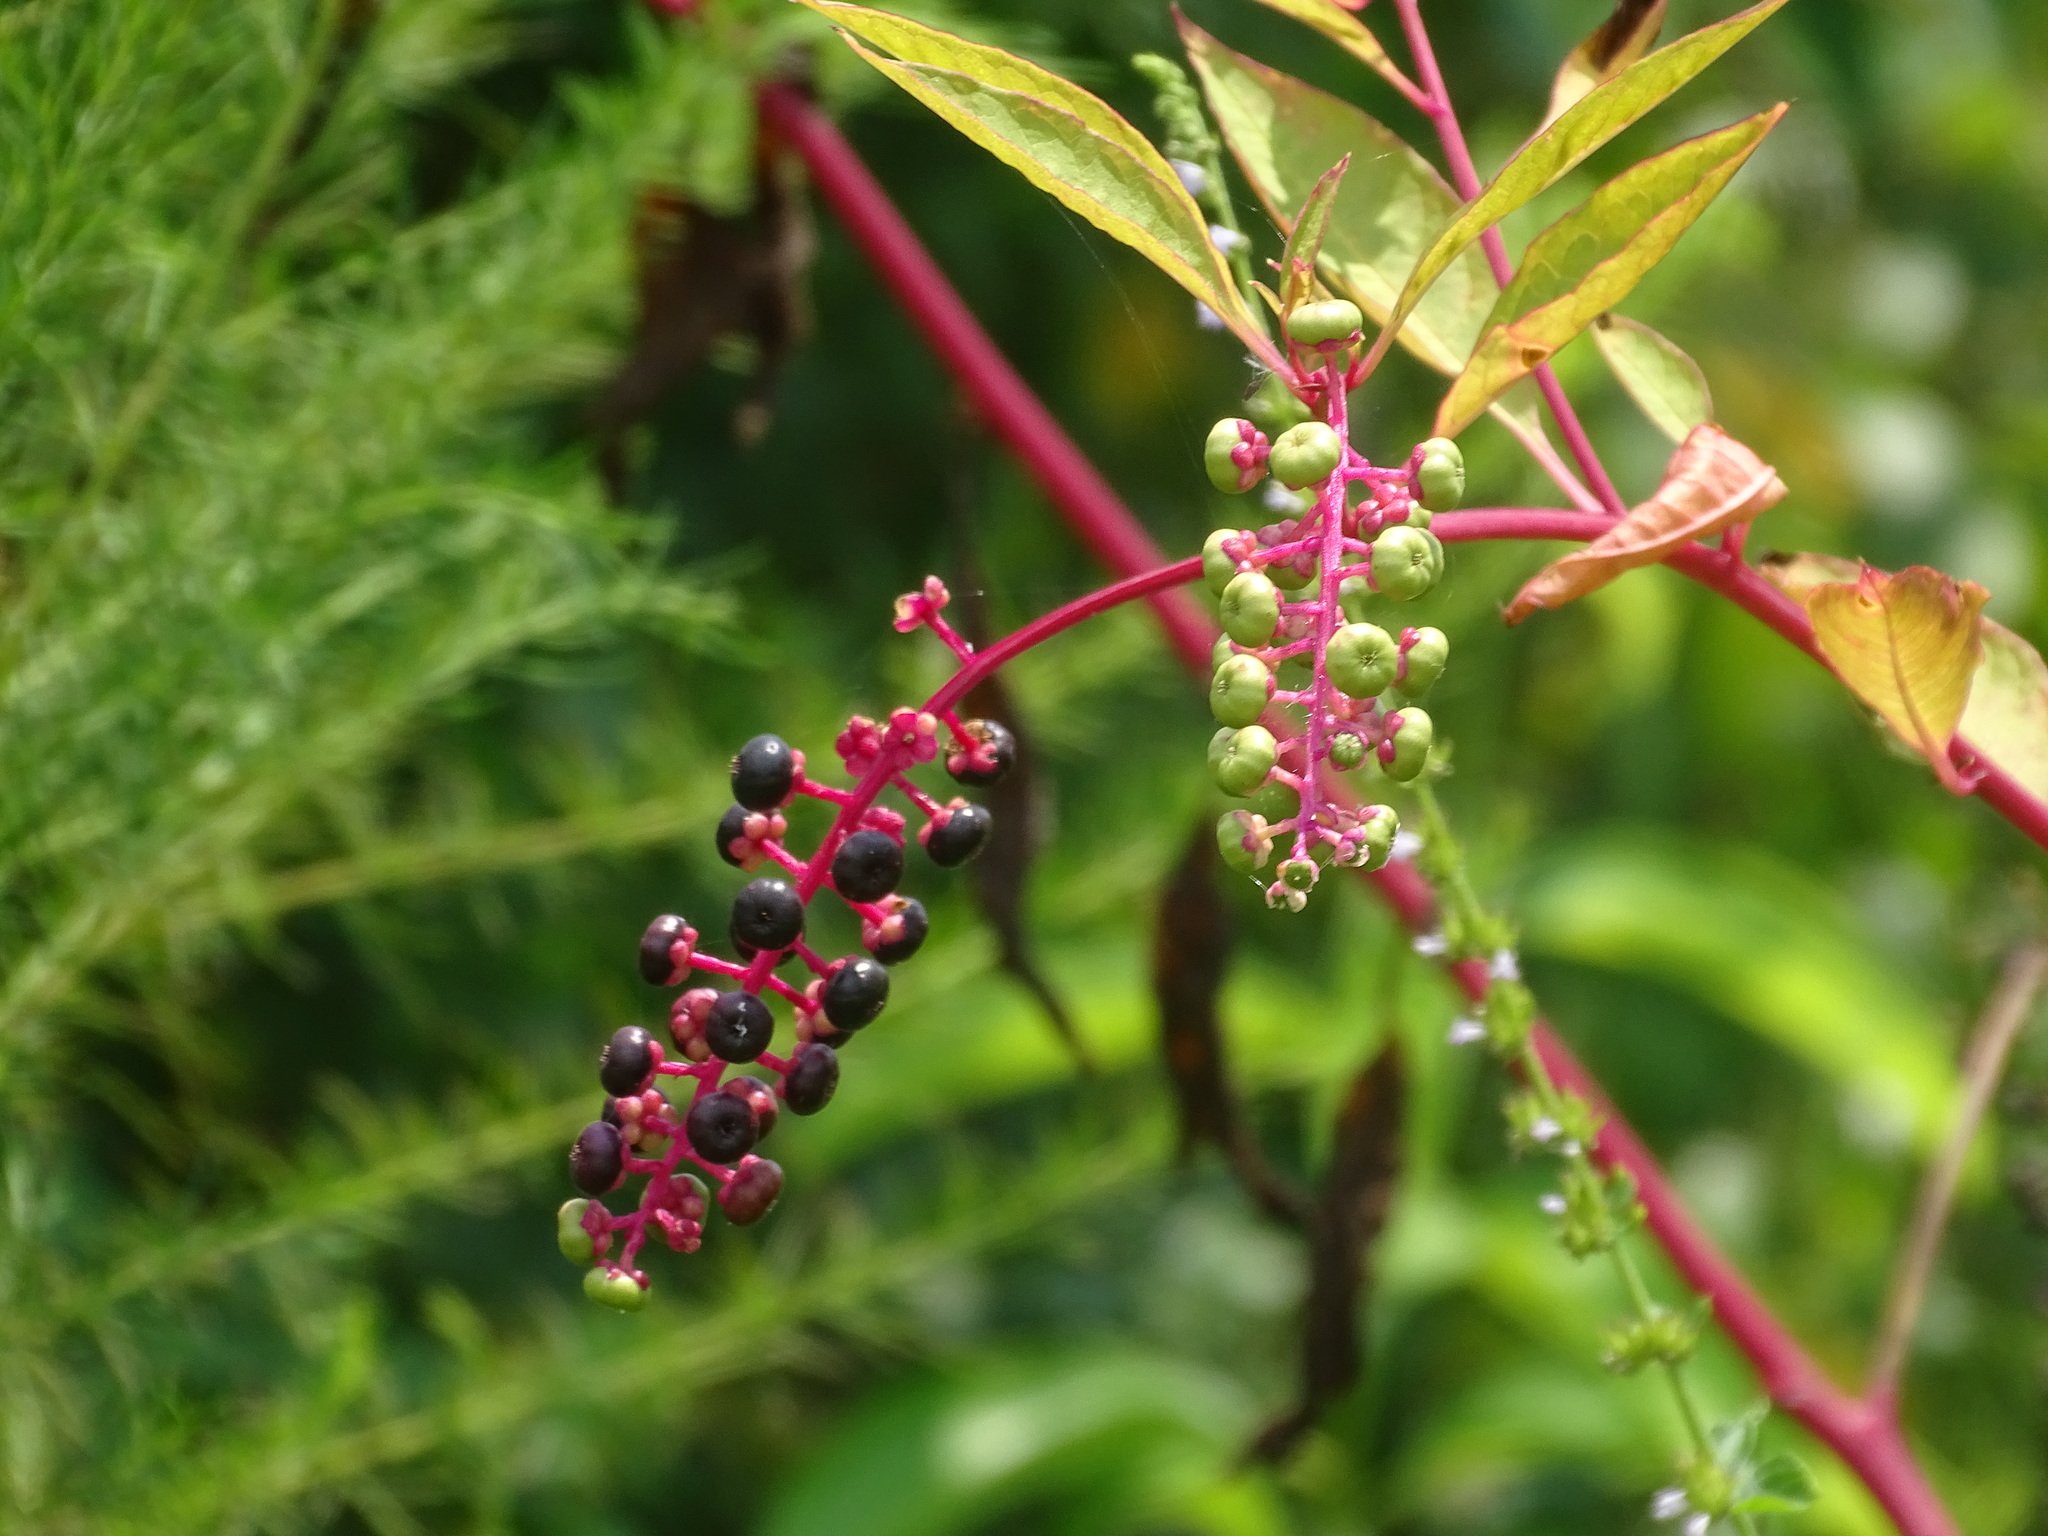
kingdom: Plantae
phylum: Tracheophyta
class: Magnoliopsida
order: Caryophyllales
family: Phytolaccaceae
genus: Phytolacca
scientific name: Phytolacca americana
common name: American pokeweed
